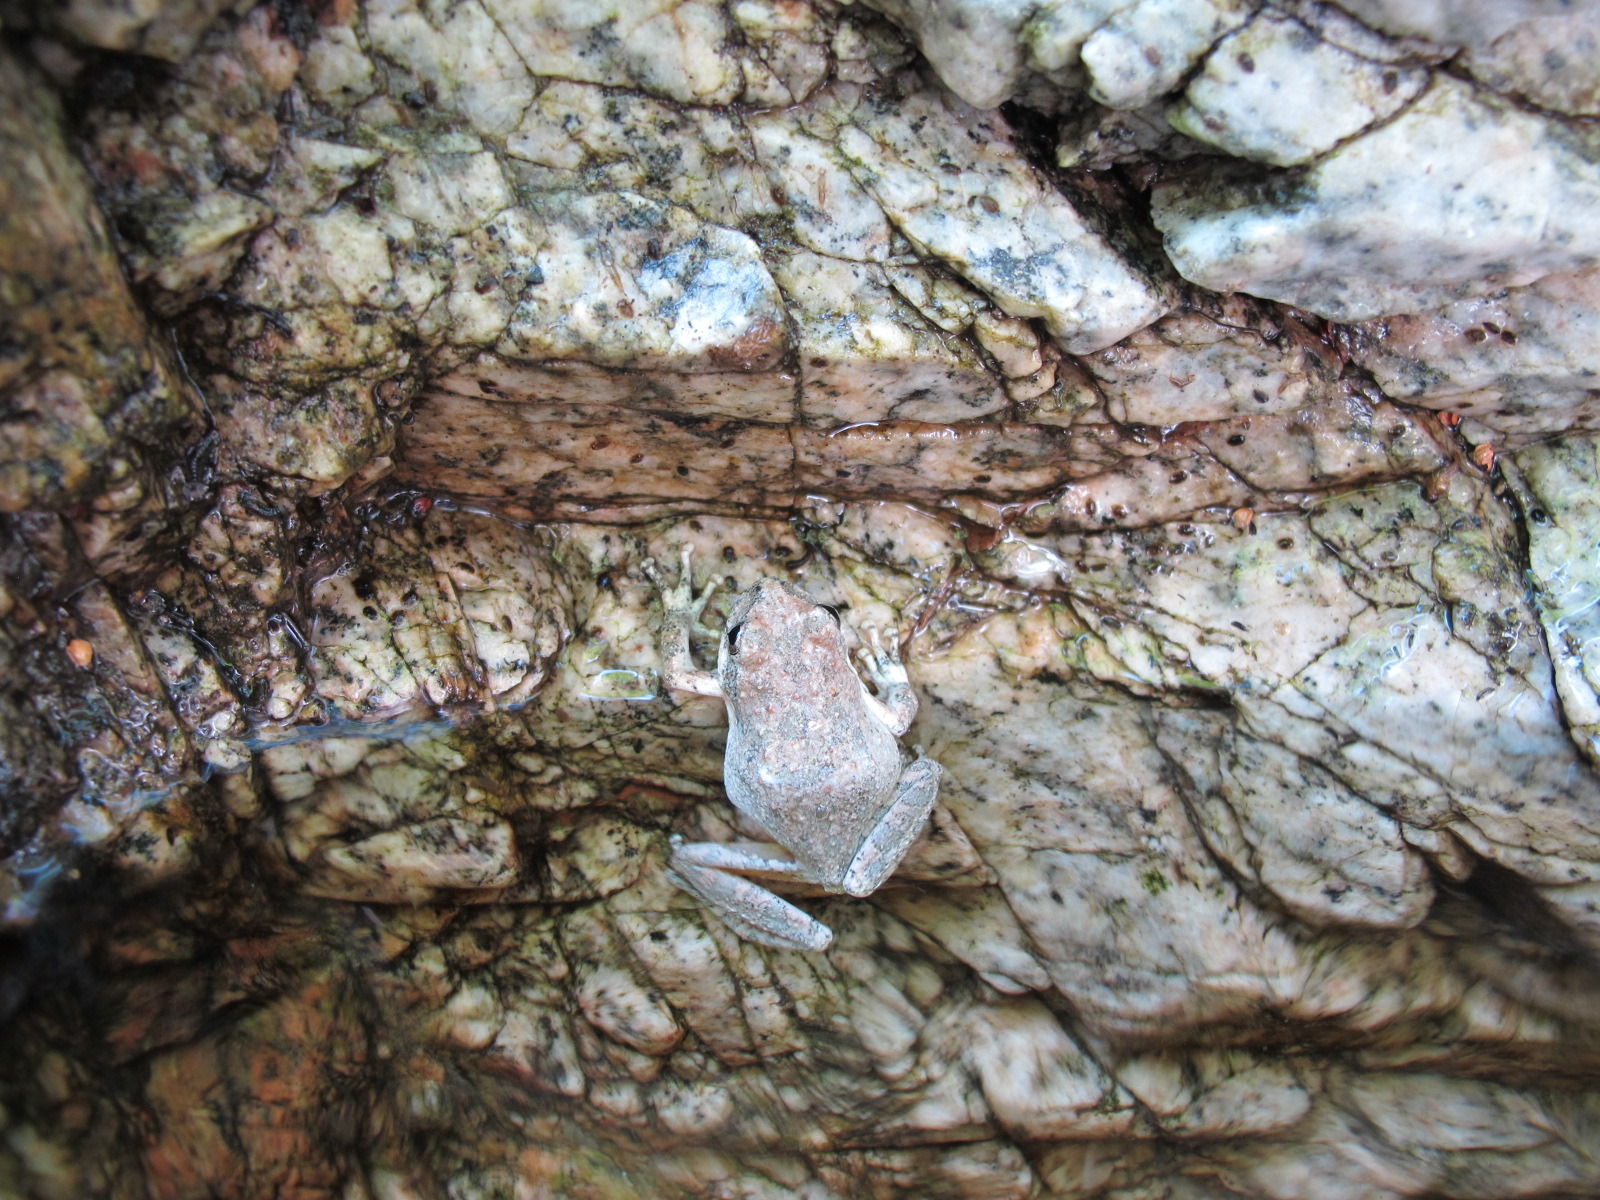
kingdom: Animalia
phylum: Chordata
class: Amphibia
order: Anura
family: Hylidae
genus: Pseudacris
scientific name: Pseudacris cadaverina
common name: California chorus frog
